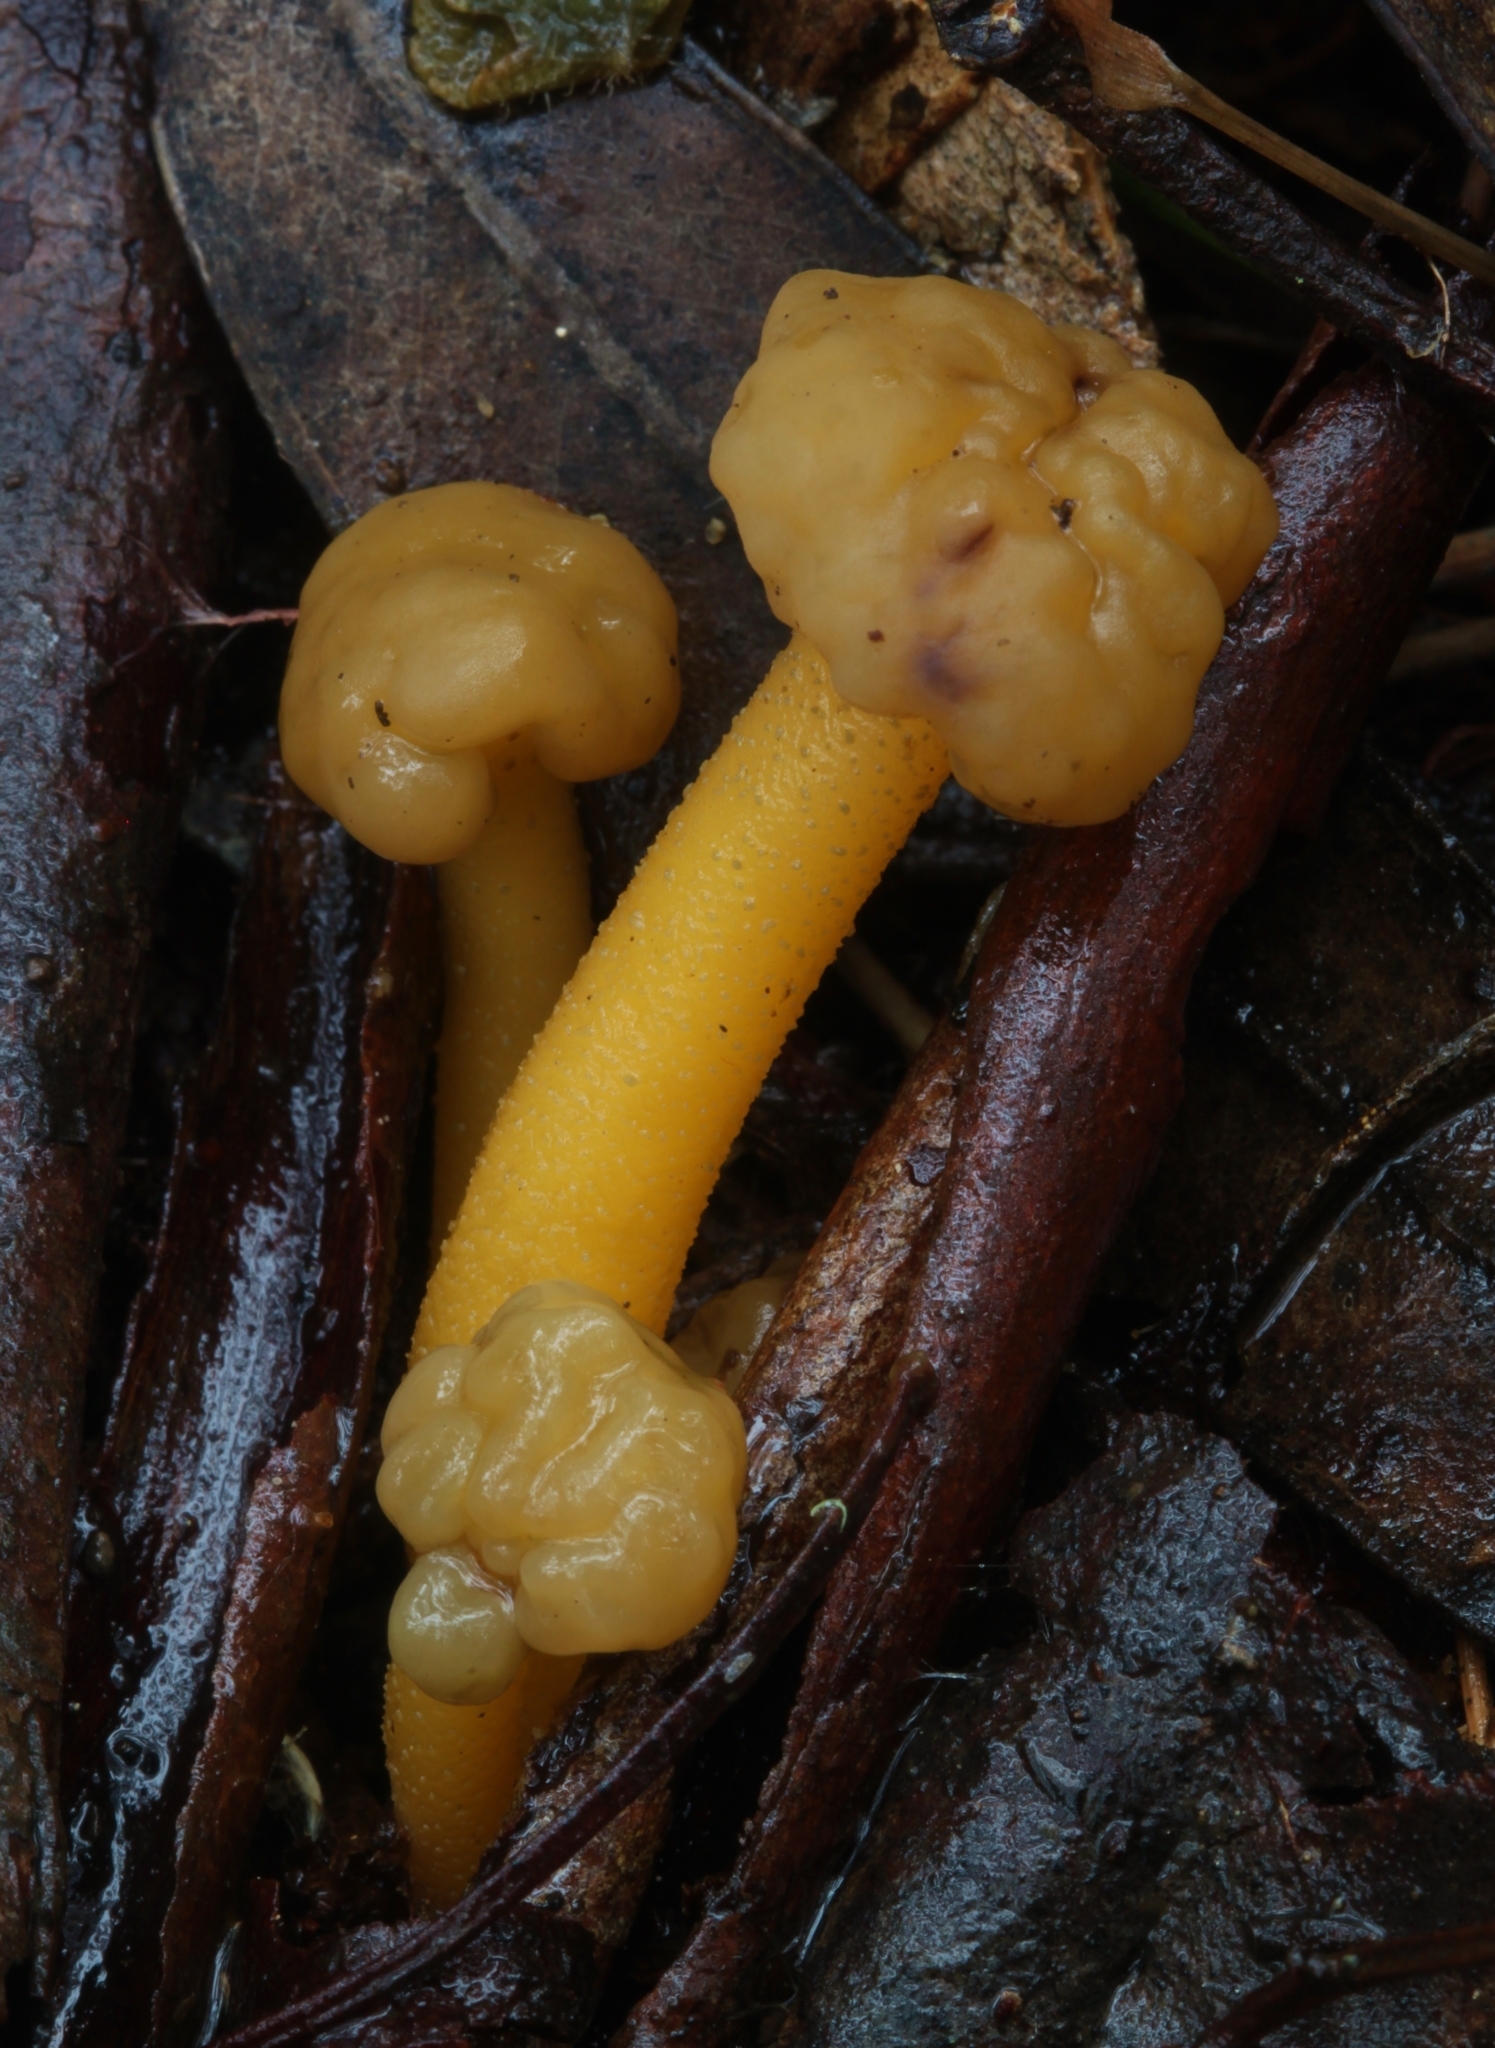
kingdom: Fungi
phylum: Ascomycota
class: Leotiomycetes
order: Leotiales
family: Leotiaceae
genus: Leotia
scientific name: Leotia lubrica
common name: Jellybaby
